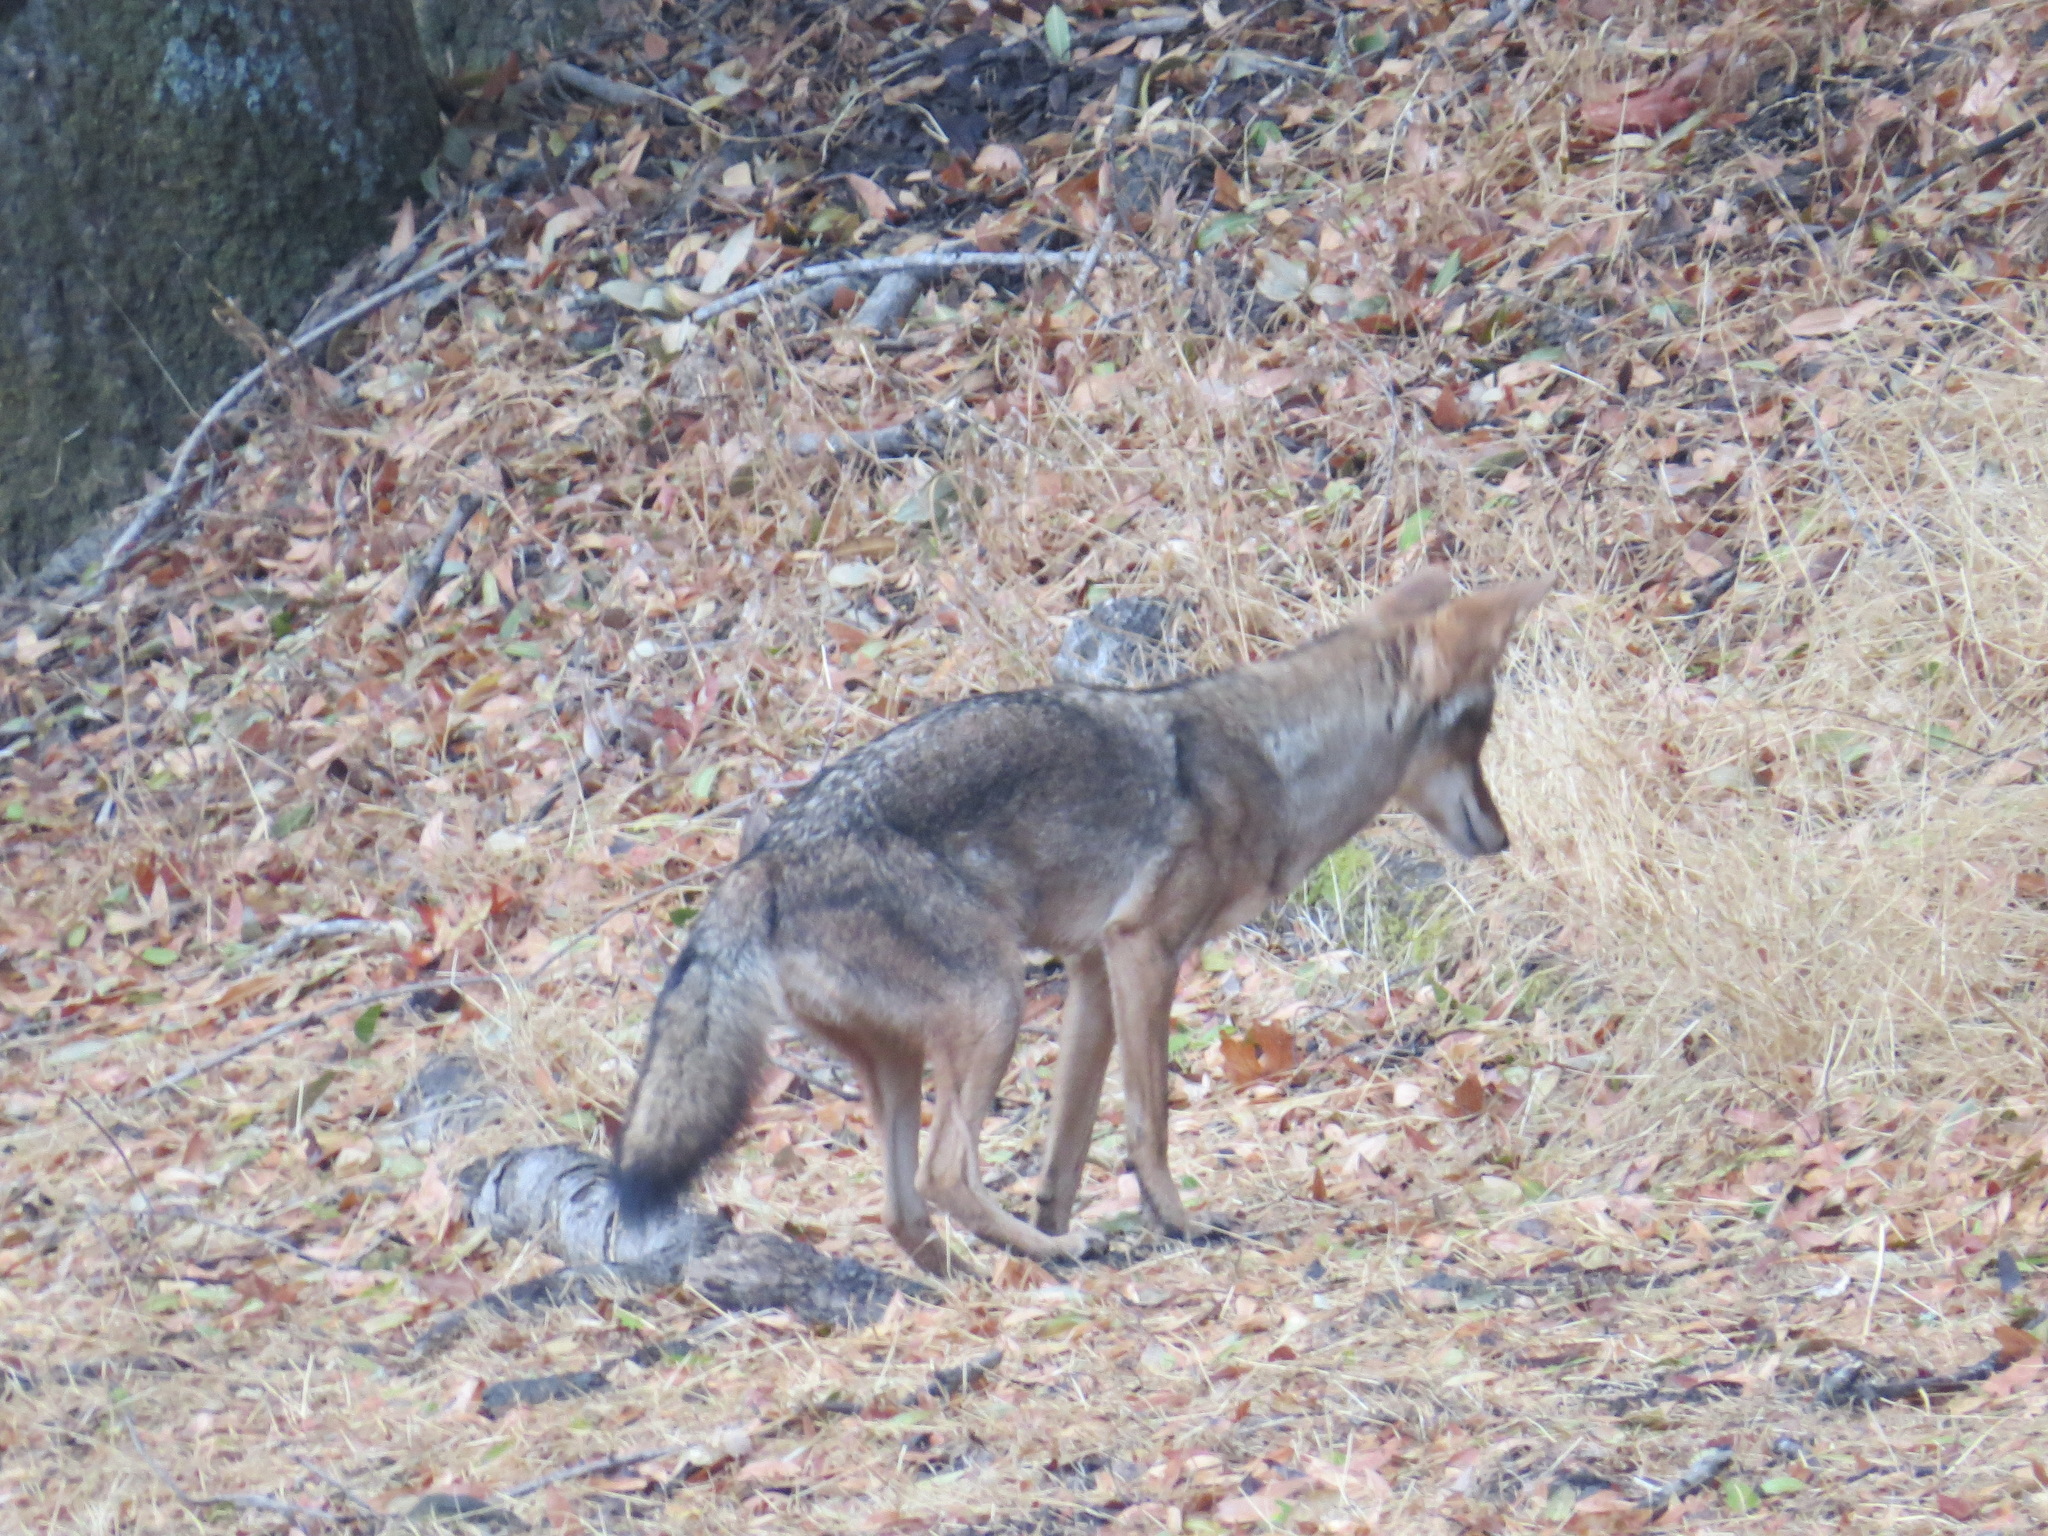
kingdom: Animalia
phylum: Chordata
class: Mammalia
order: Carnivora
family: Canidae
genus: Canis
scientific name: Canis latrans
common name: Coyote
